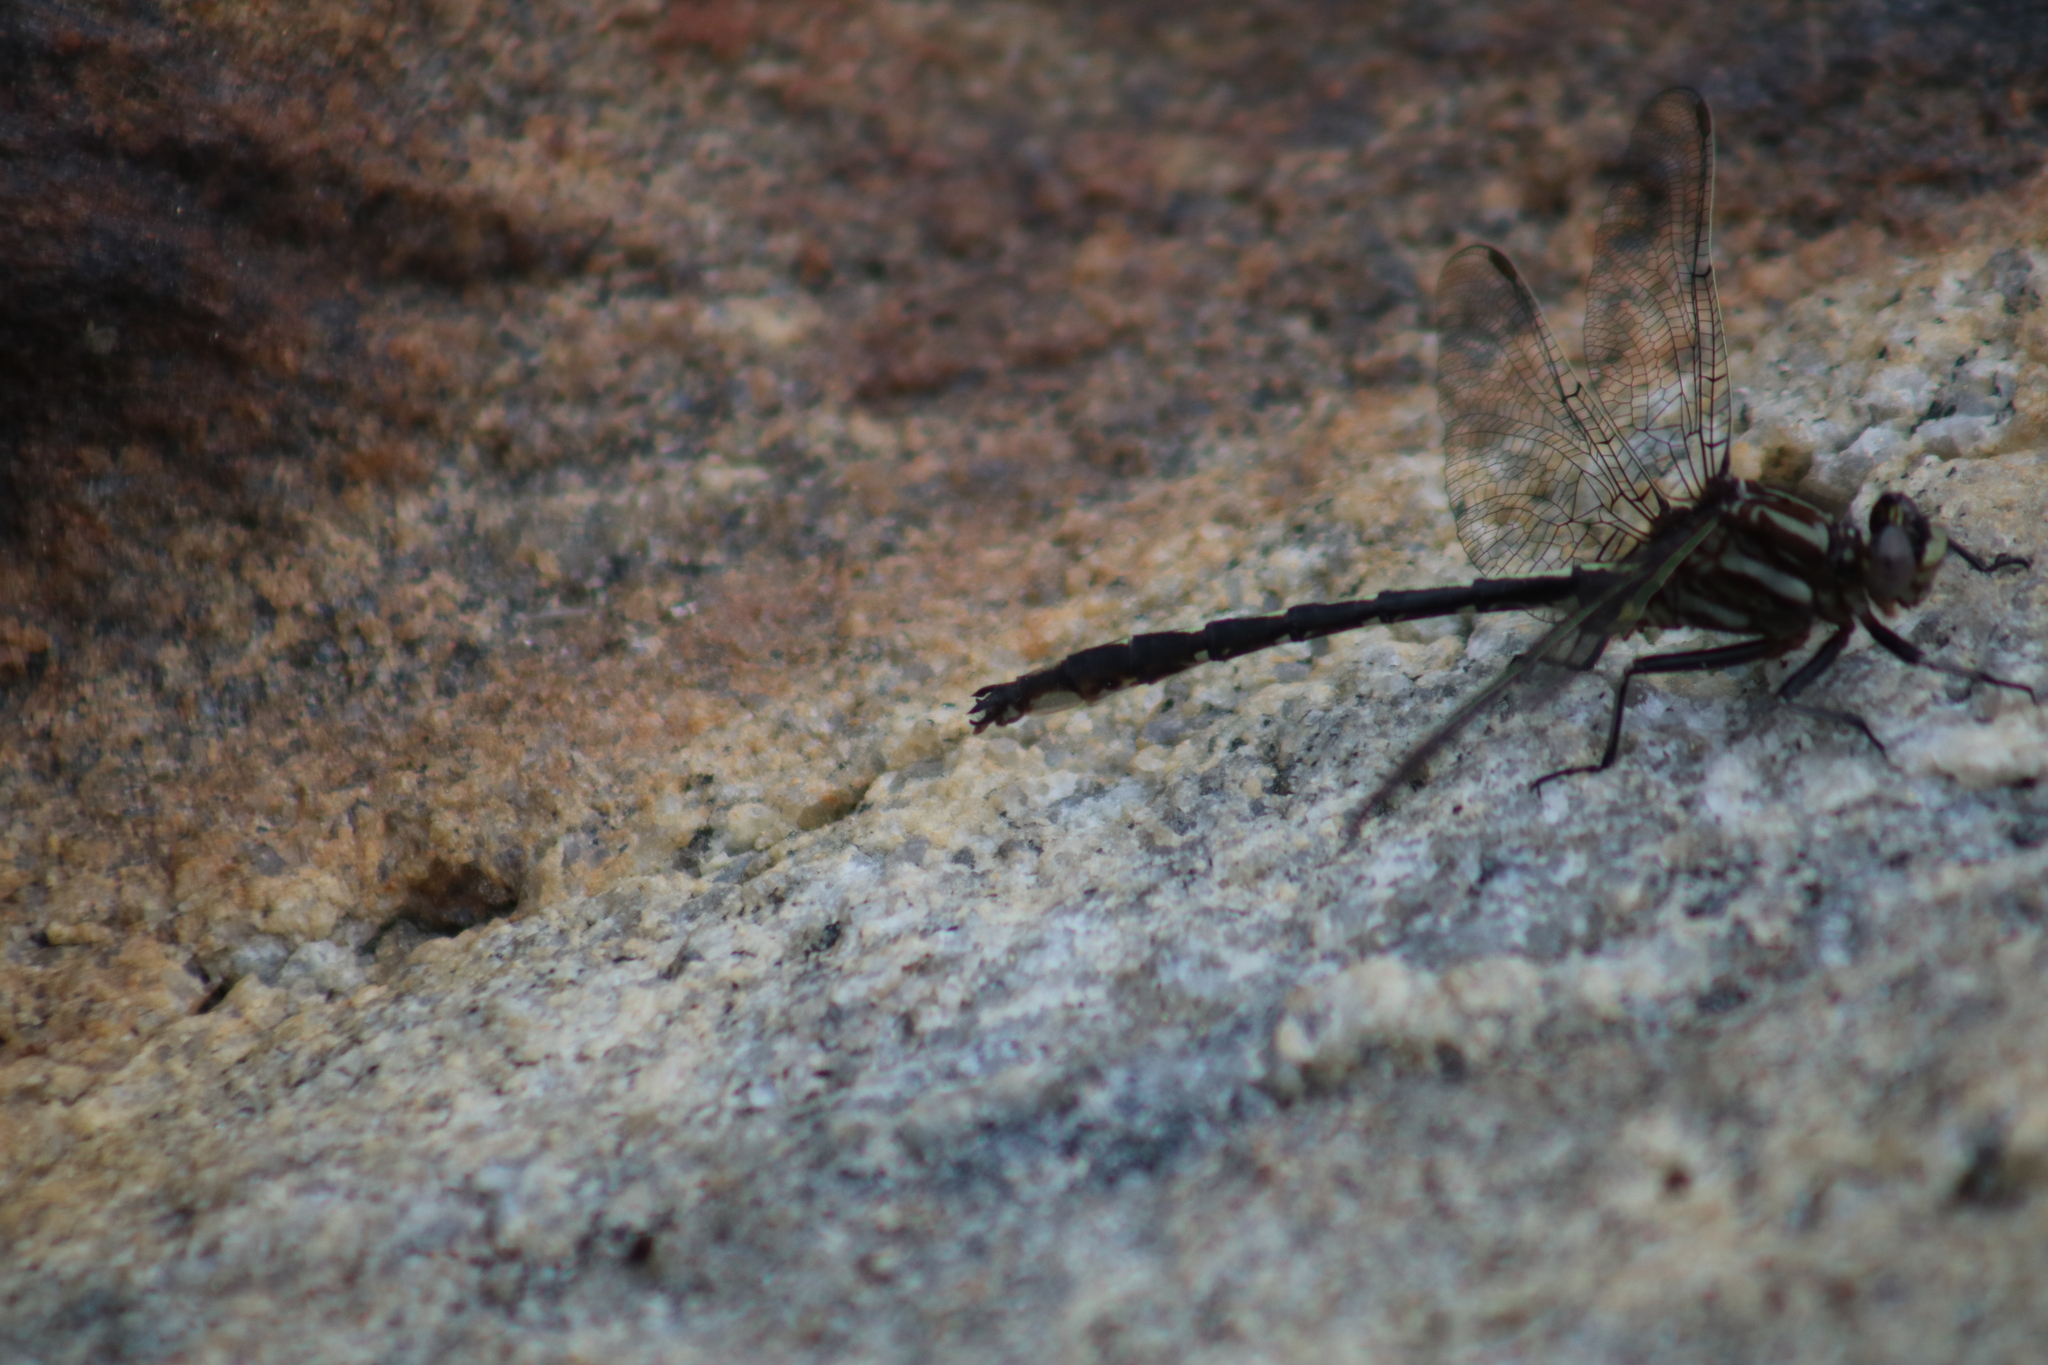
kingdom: Animalia
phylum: Arthropoda
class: Insecta
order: Odonata
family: Gomphidae
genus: Phanogomphus
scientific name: Phanogomphus lividus
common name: Ashy clubtail
